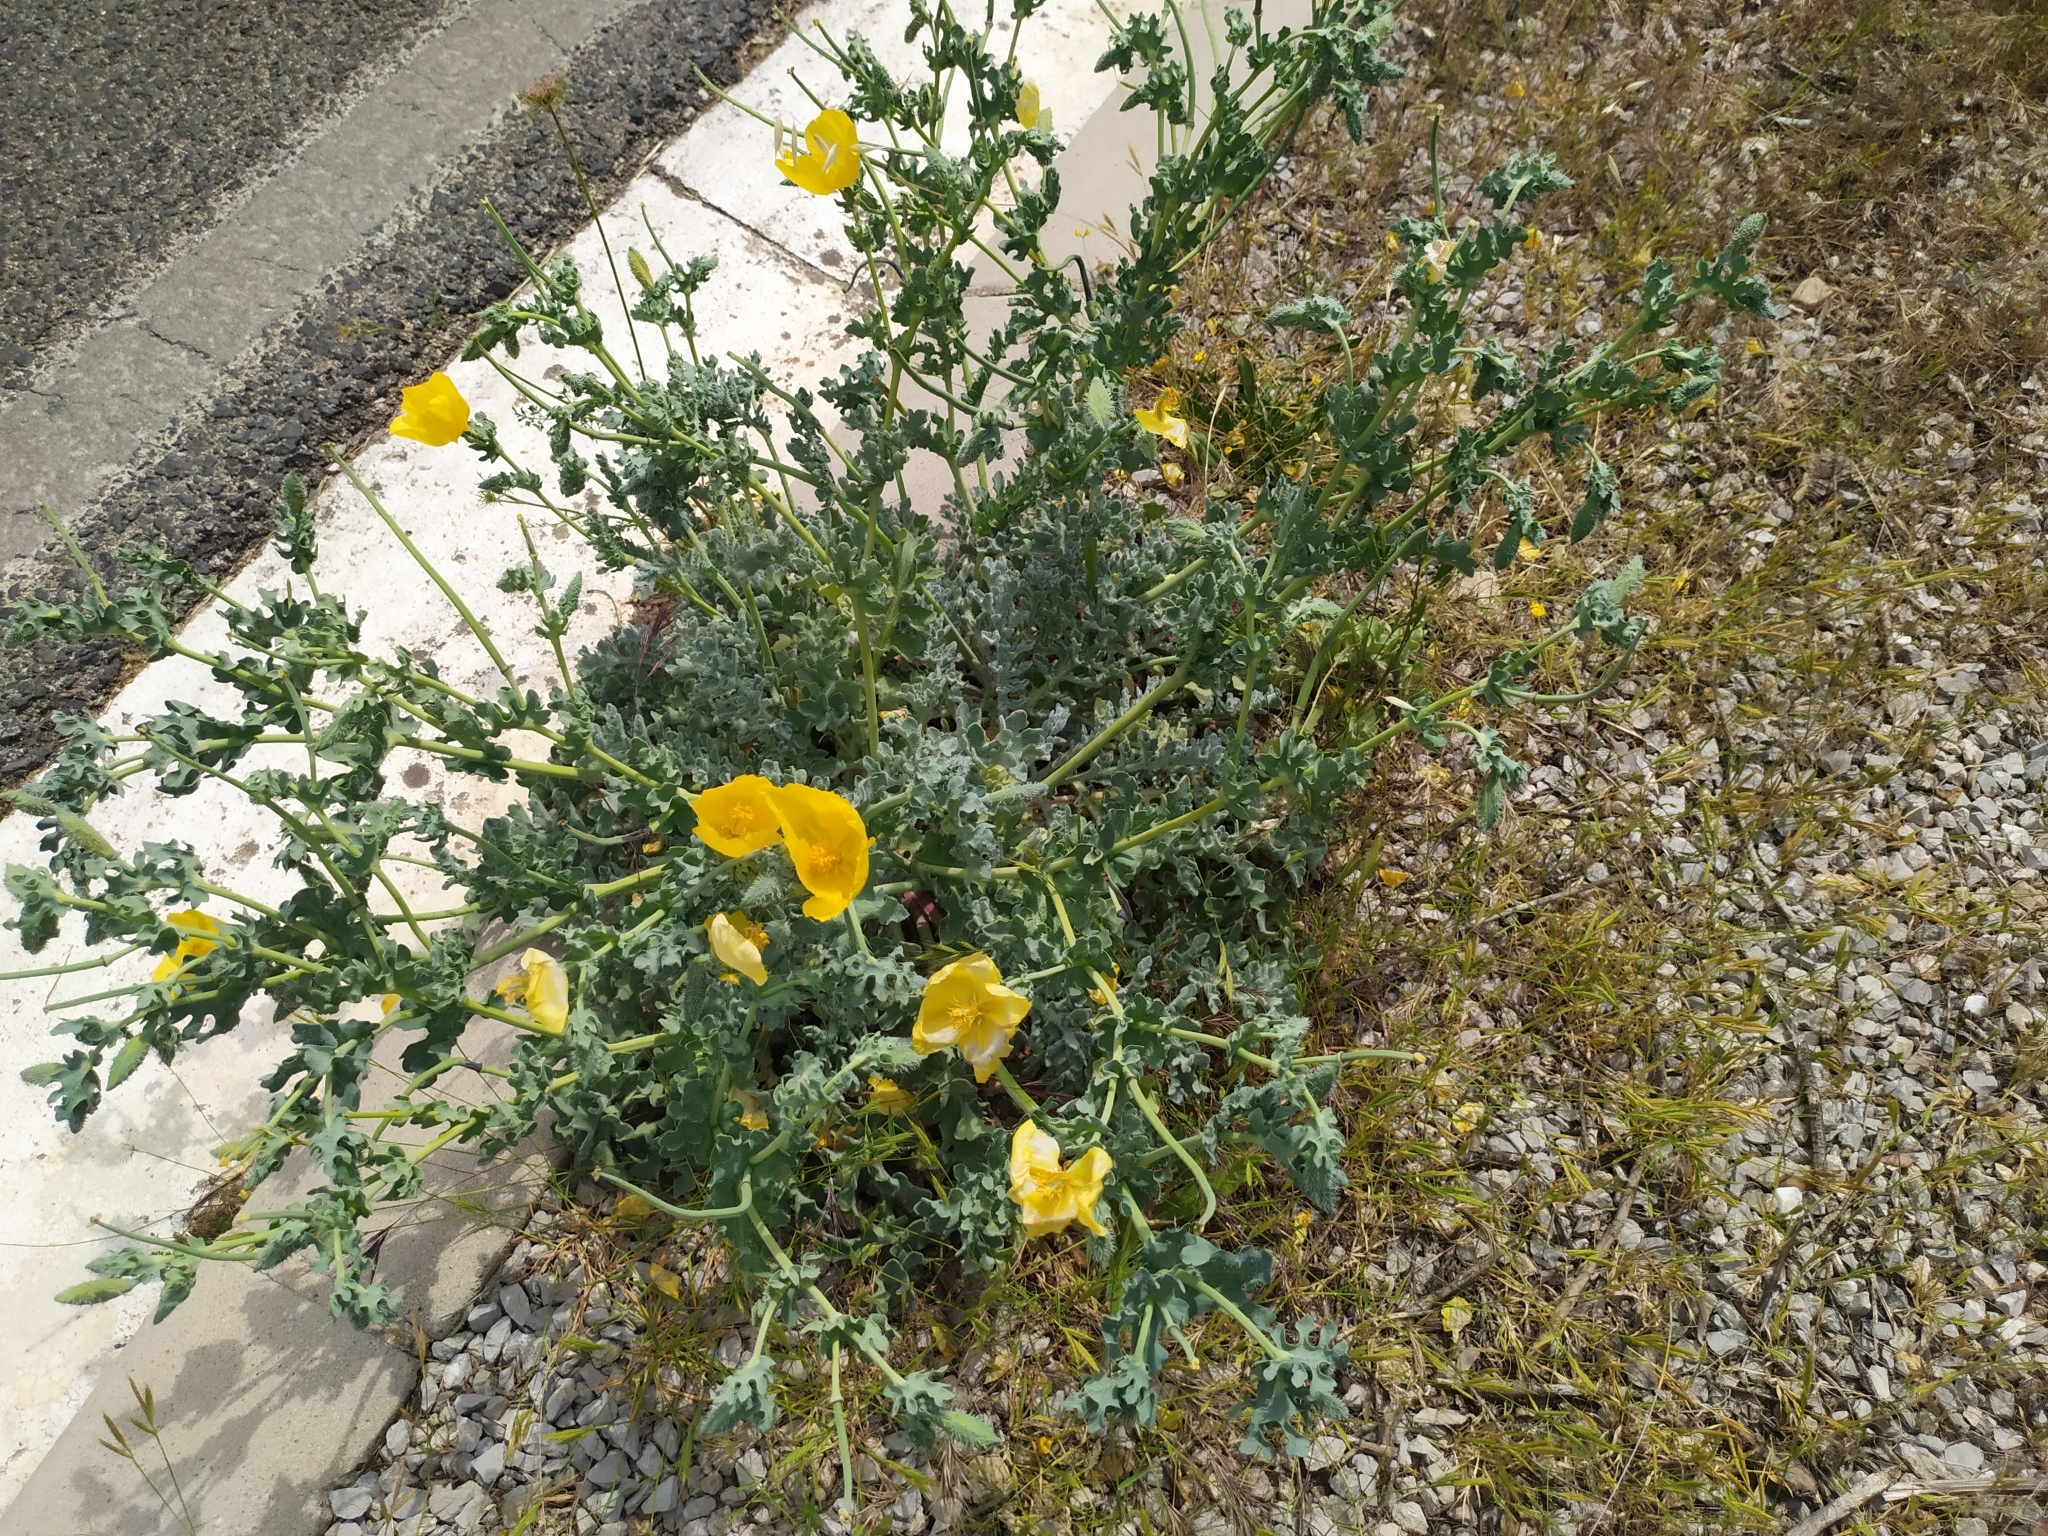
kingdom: Plantae
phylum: Tracheophyta
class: Magnoliopsida
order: Ranunculales
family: Papaveraceae
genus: Glaucium
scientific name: Glaucium flavum
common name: Yellow horned-poppy
